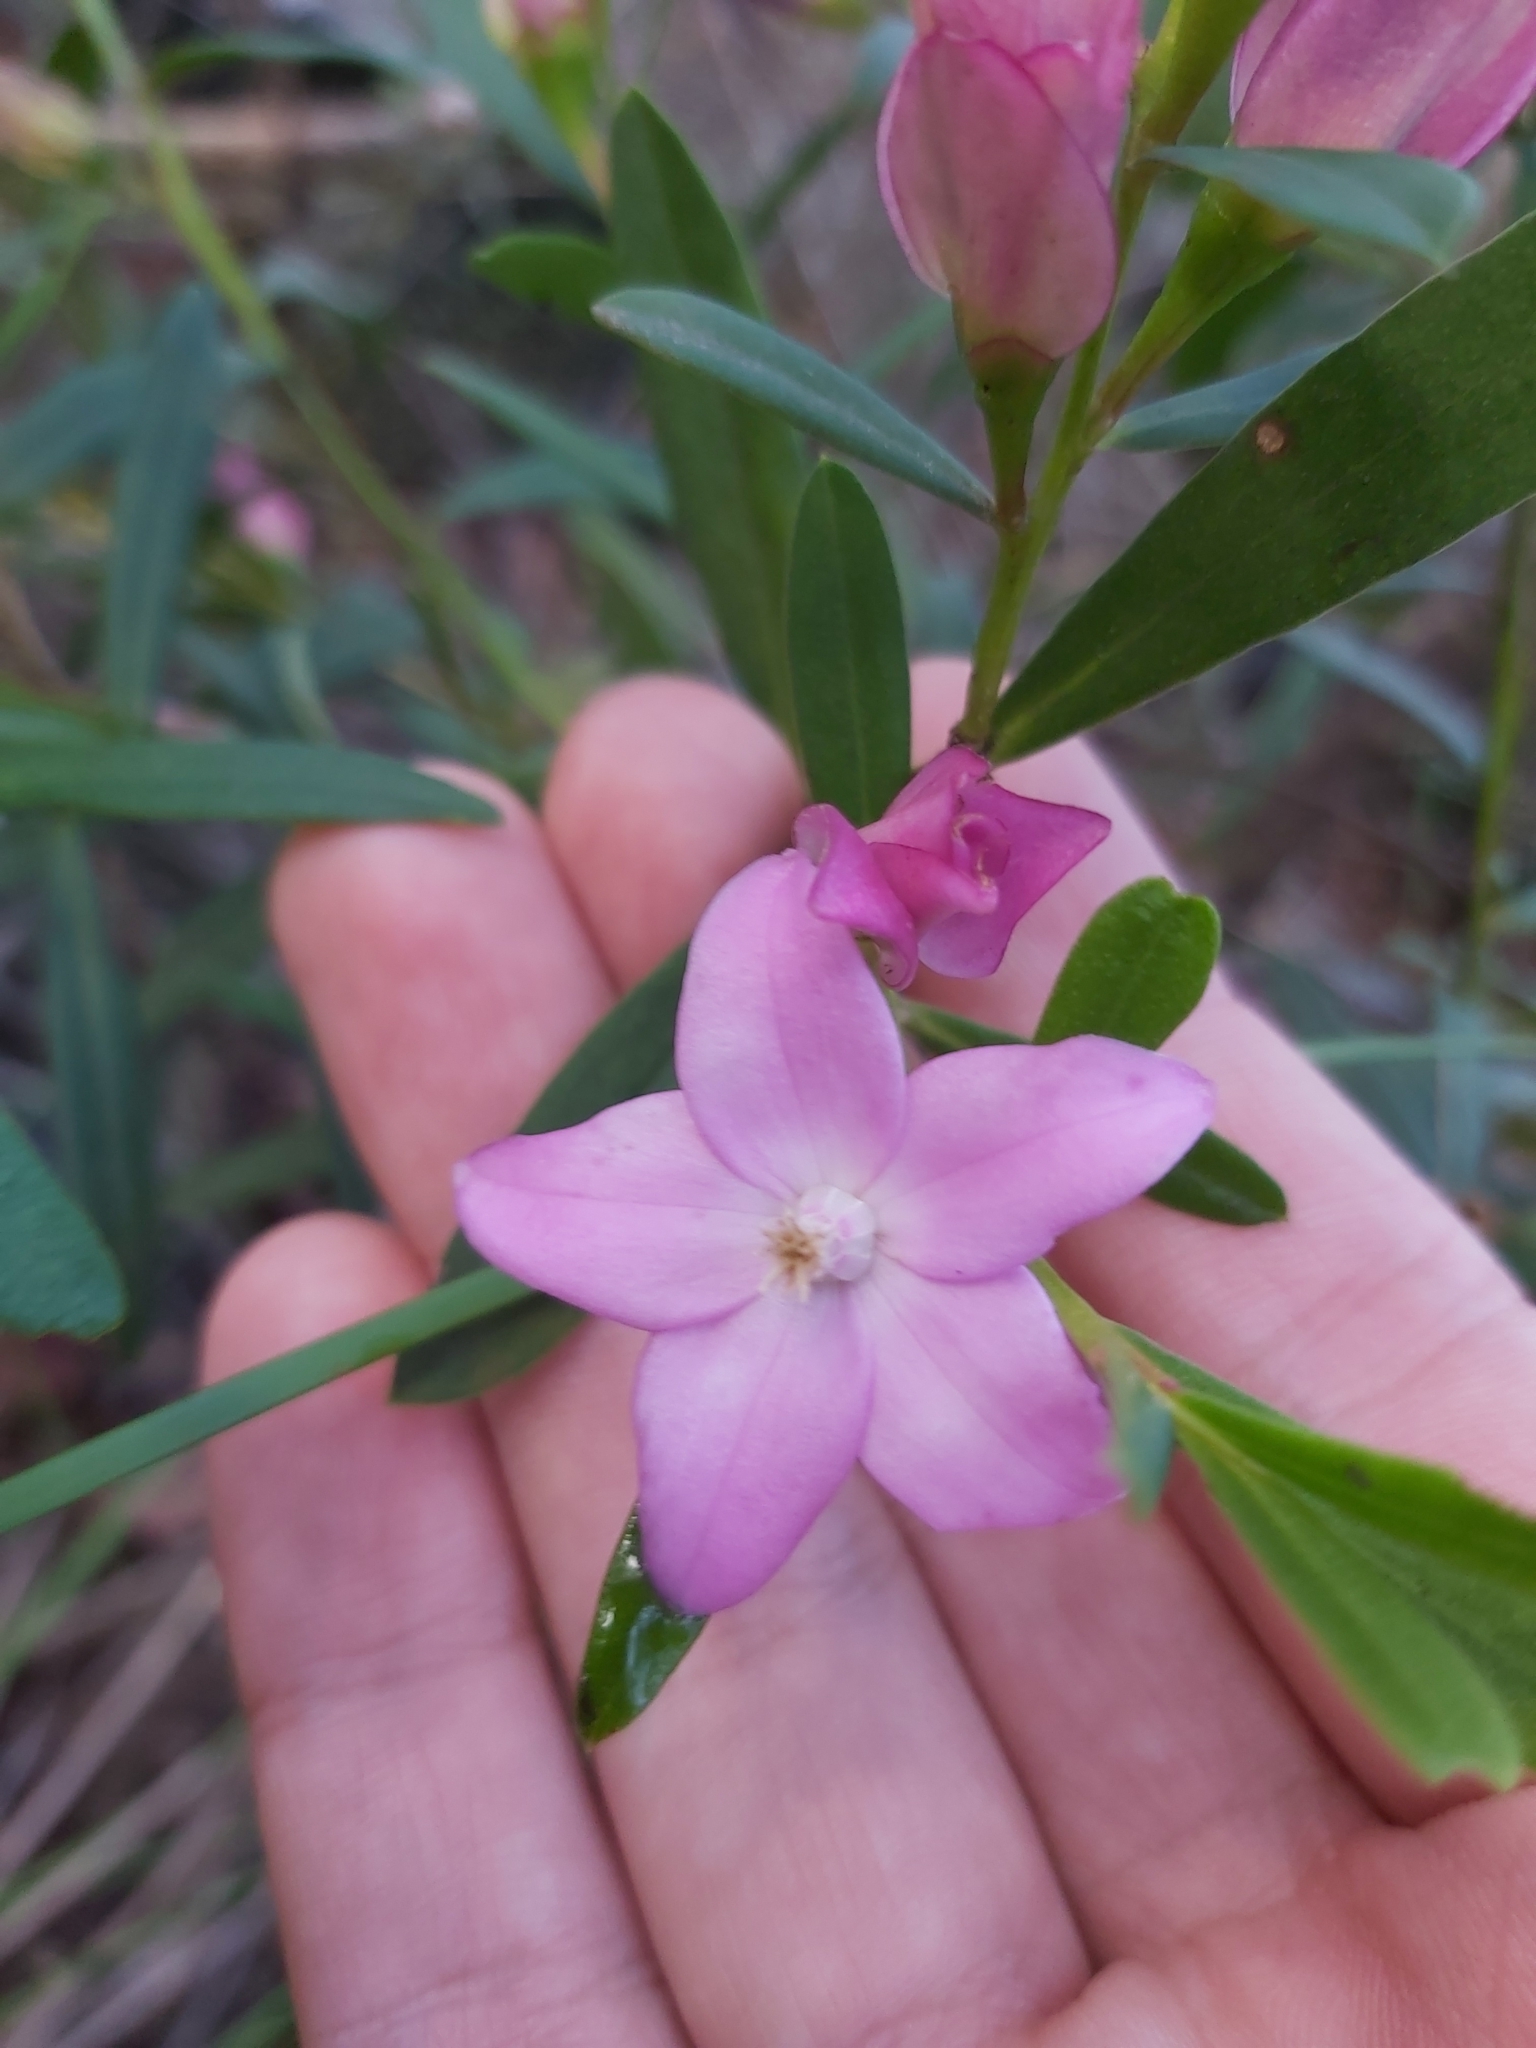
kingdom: Plantae
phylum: Tracheophyta
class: Magnoliopsida
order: Sapindales
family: Rutaceae
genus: Crowea
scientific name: Crowea saligna
